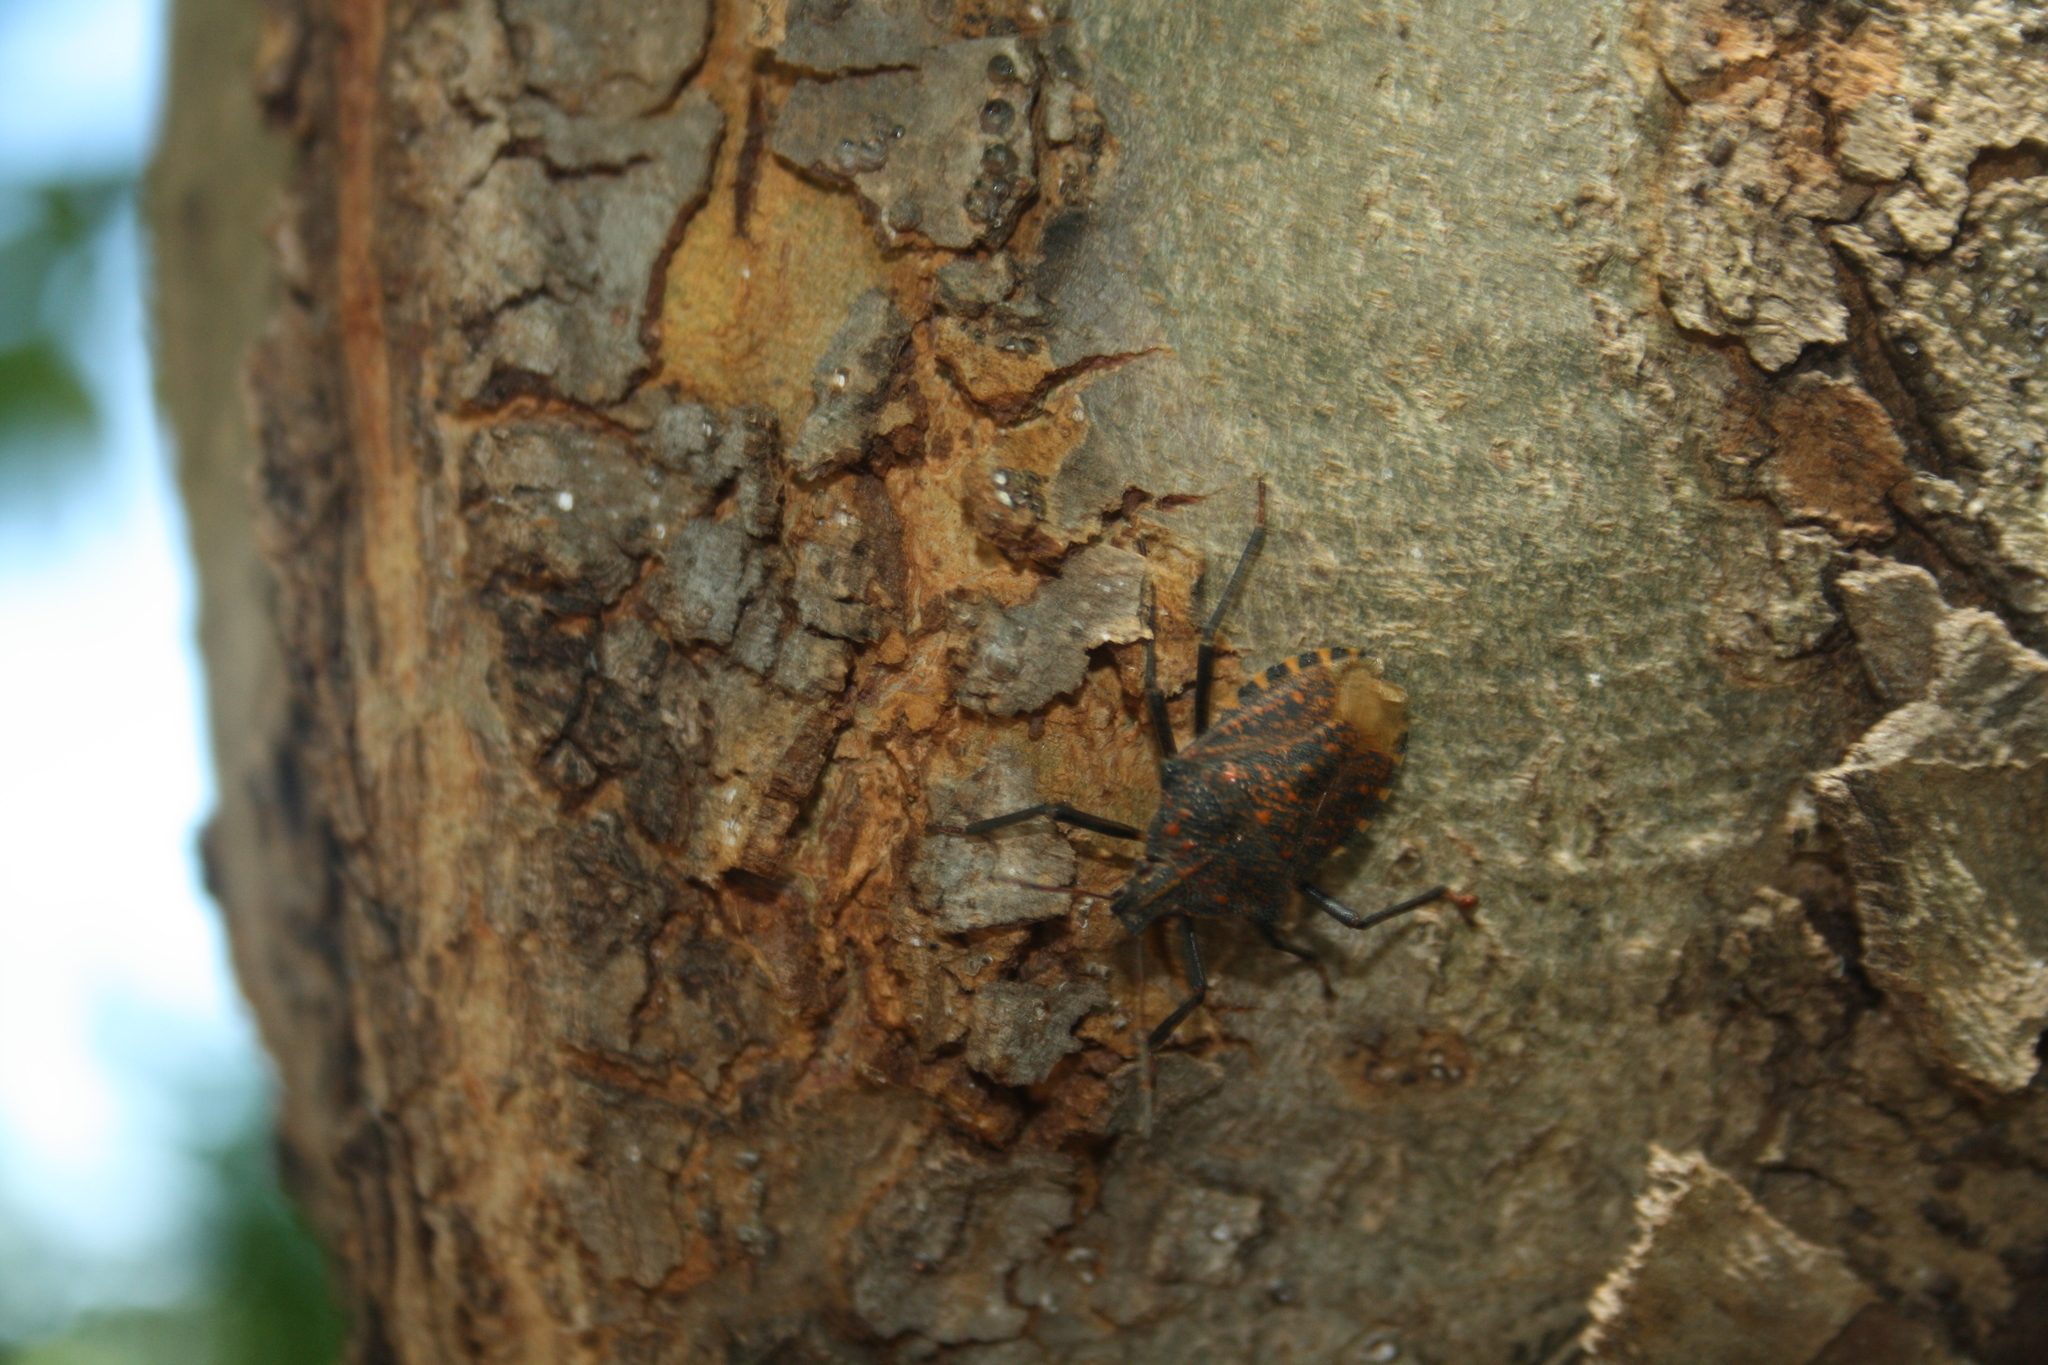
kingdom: Animalia
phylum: Arthropoda
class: Insecta
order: Hemiptera
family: Pentatomidae
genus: Apodiphus
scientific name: Apodiphus amygdali
